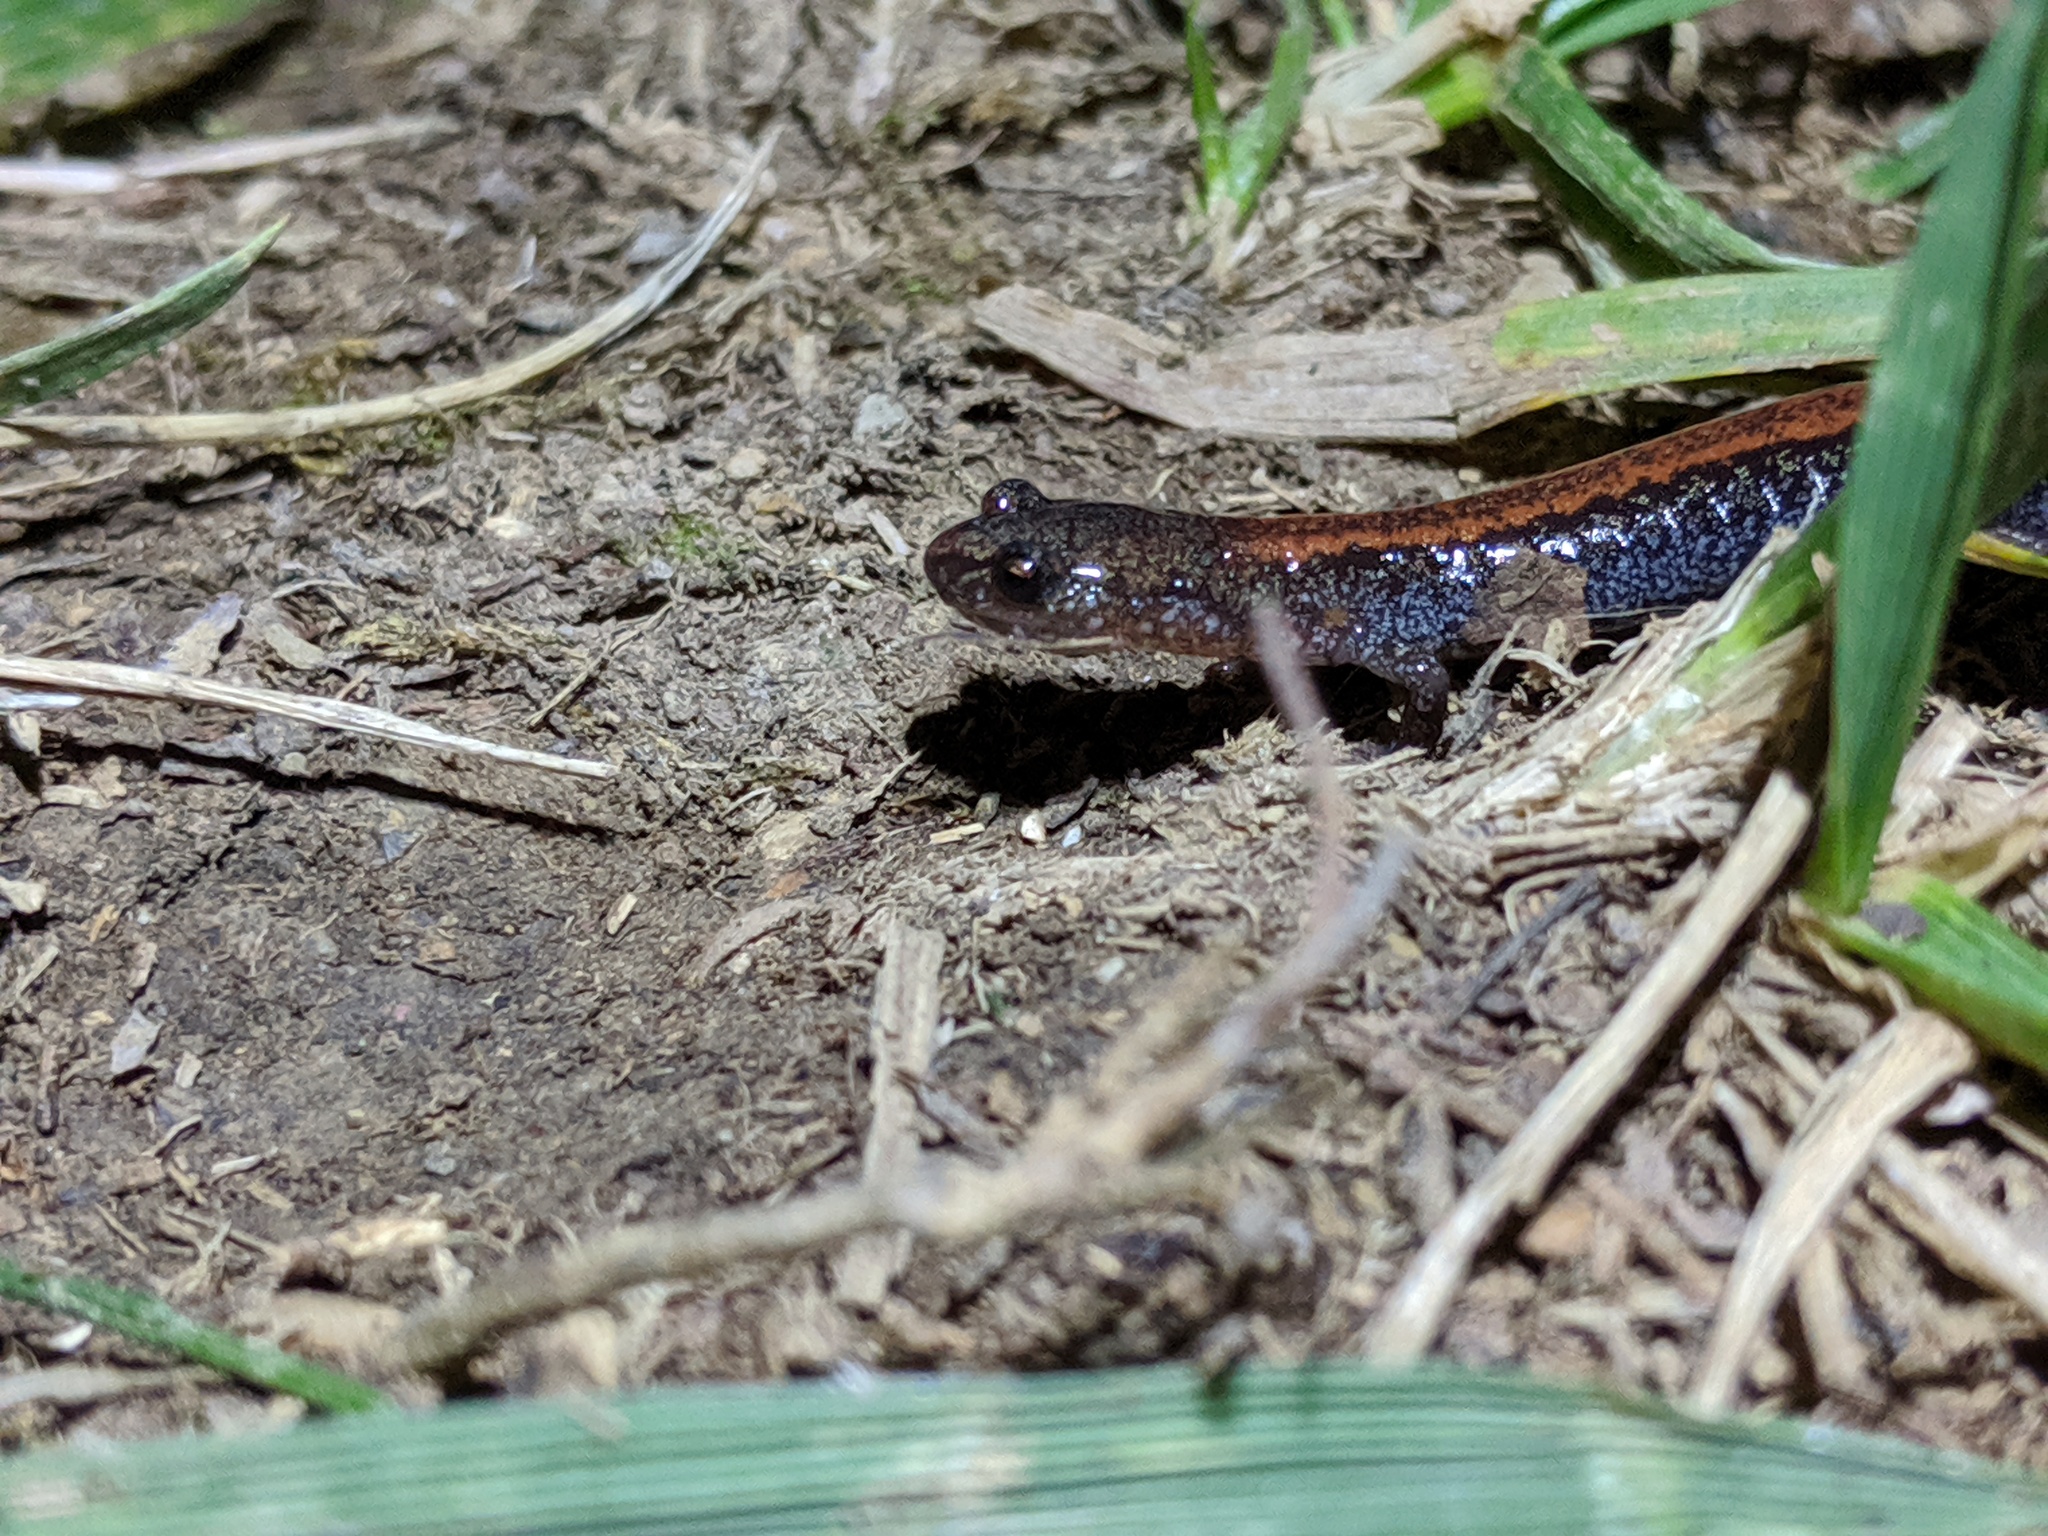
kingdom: Animalia
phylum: Chordata
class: Amphibia
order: Caudata
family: Plethodontidae
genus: Plethodon
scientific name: Plethodon cinereus
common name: Redback salamander
